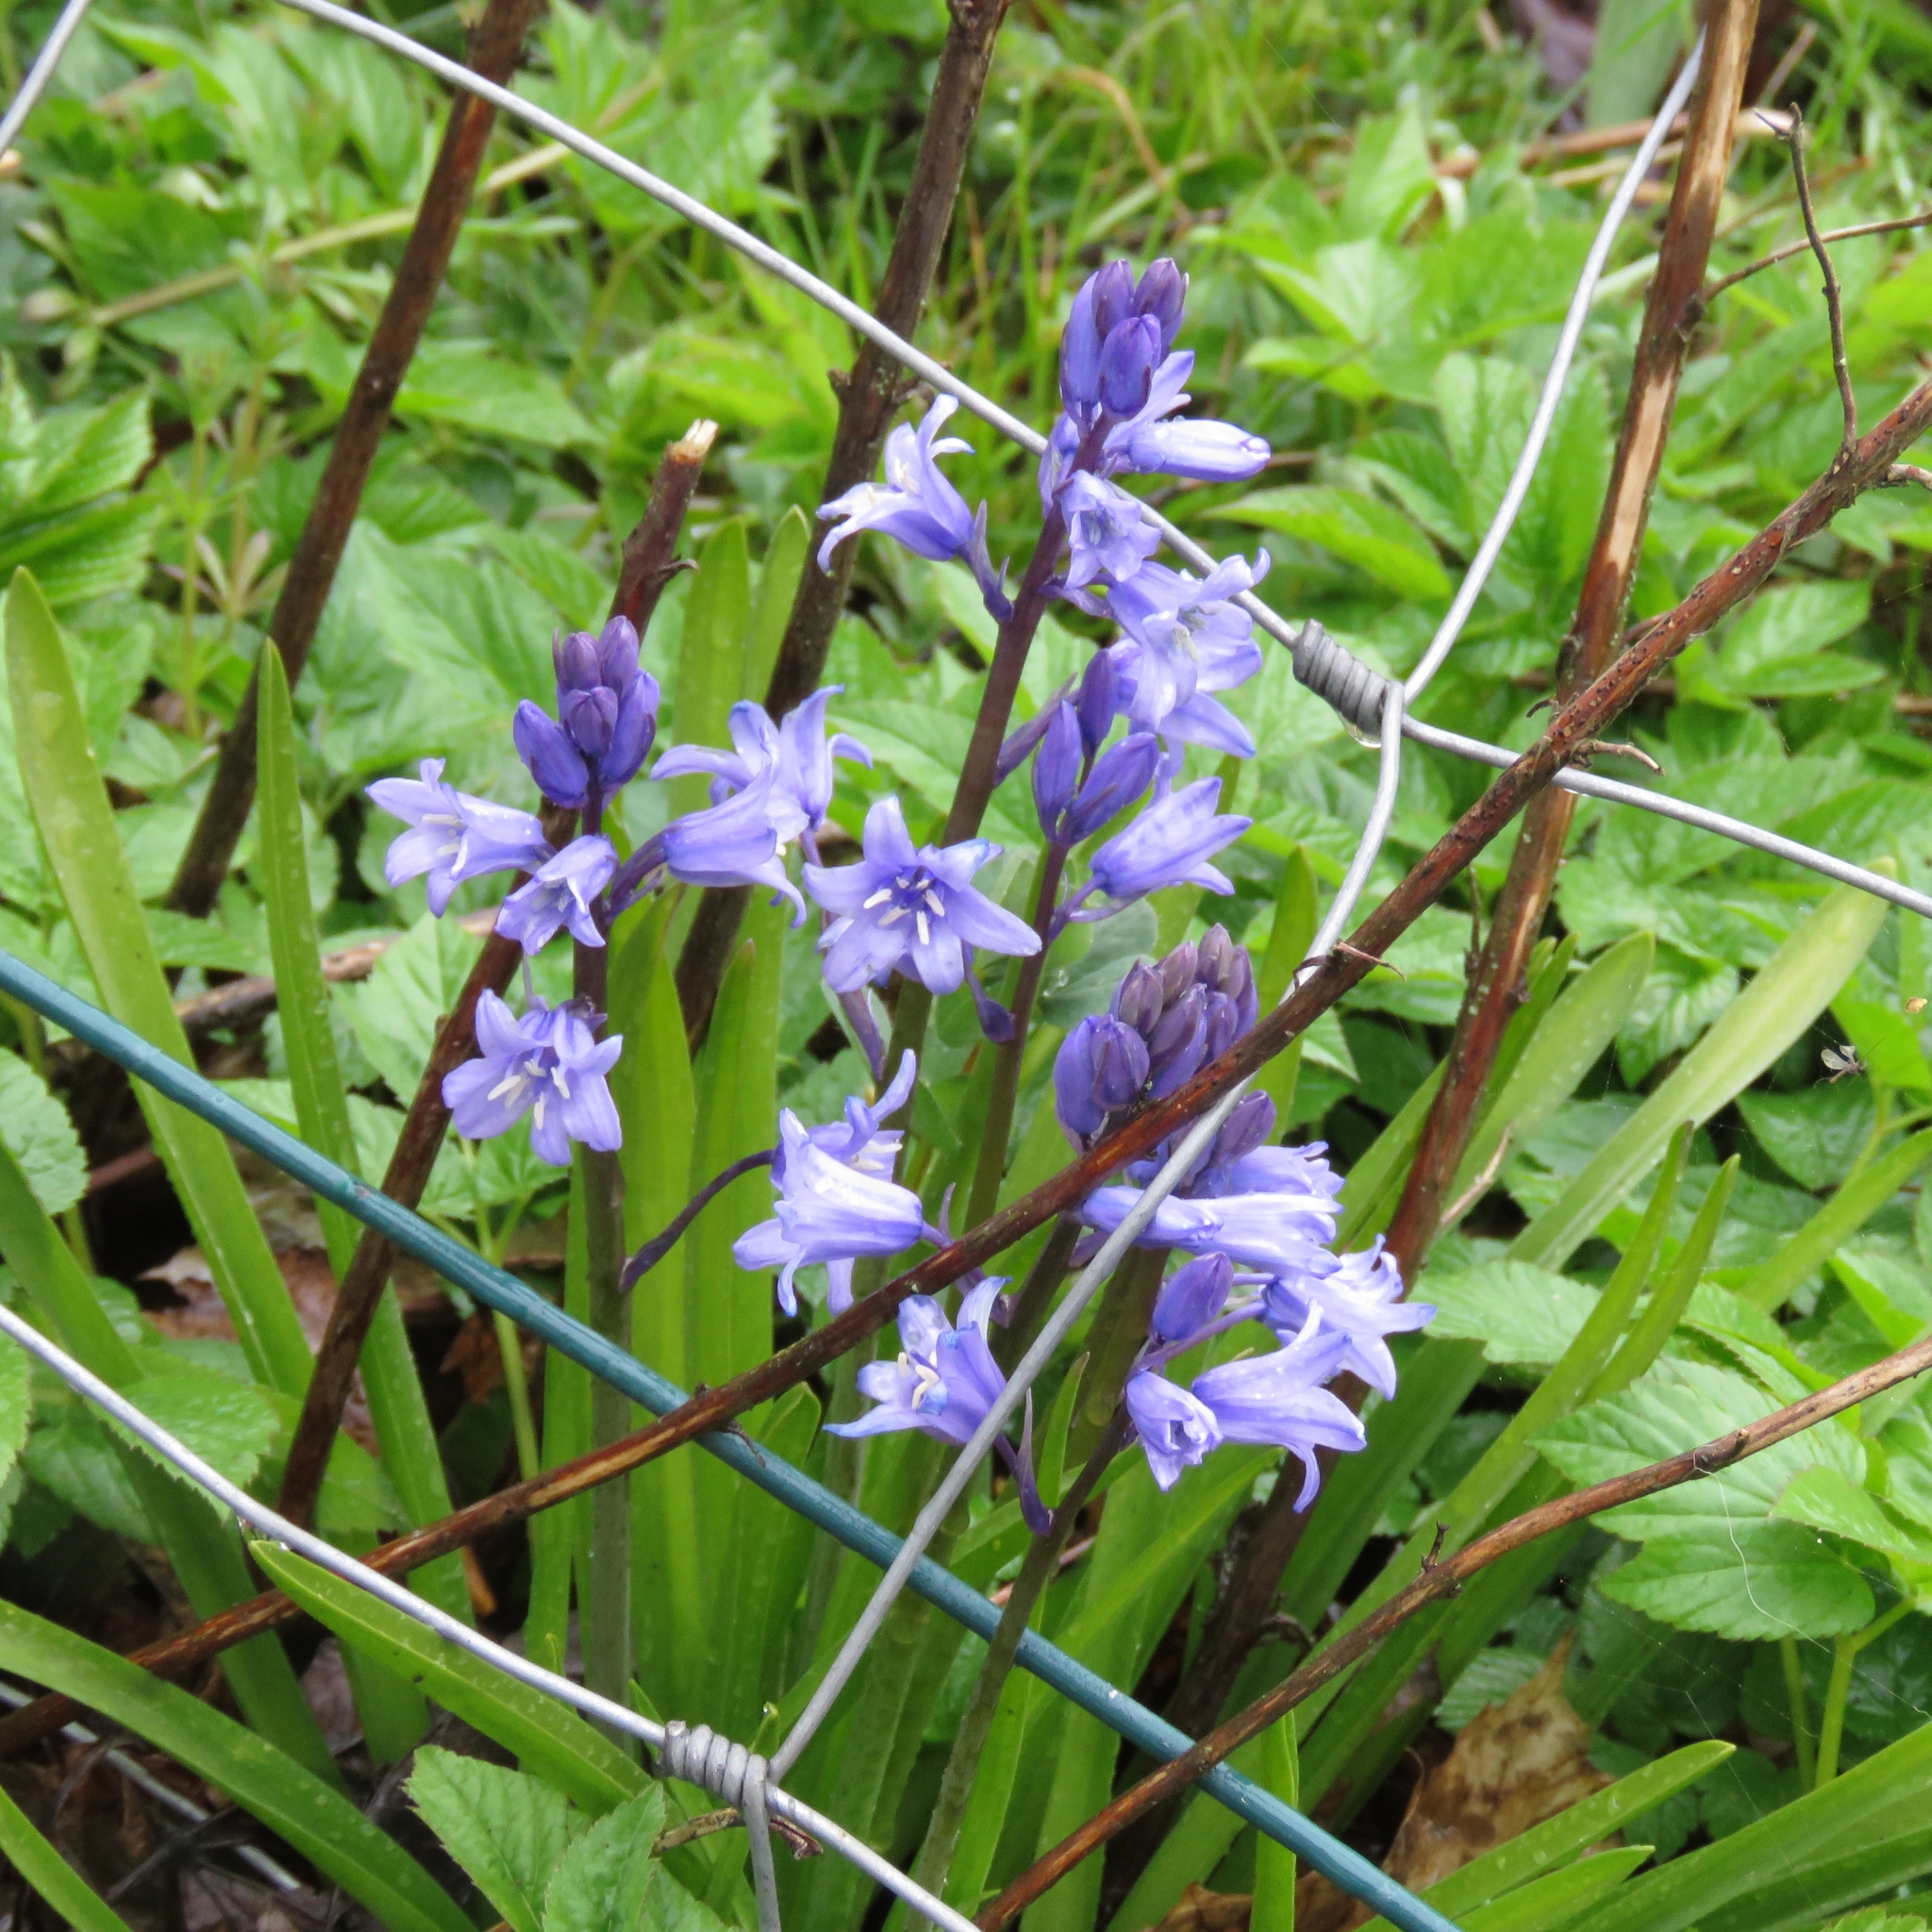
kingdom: Plantae
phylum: Tracheophyta
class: Liliopsida
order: Asparagales
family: Asparagaceae
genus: Hyacinthoides
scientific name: Hyacinthoides massartiana
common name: Hyacinthoides
